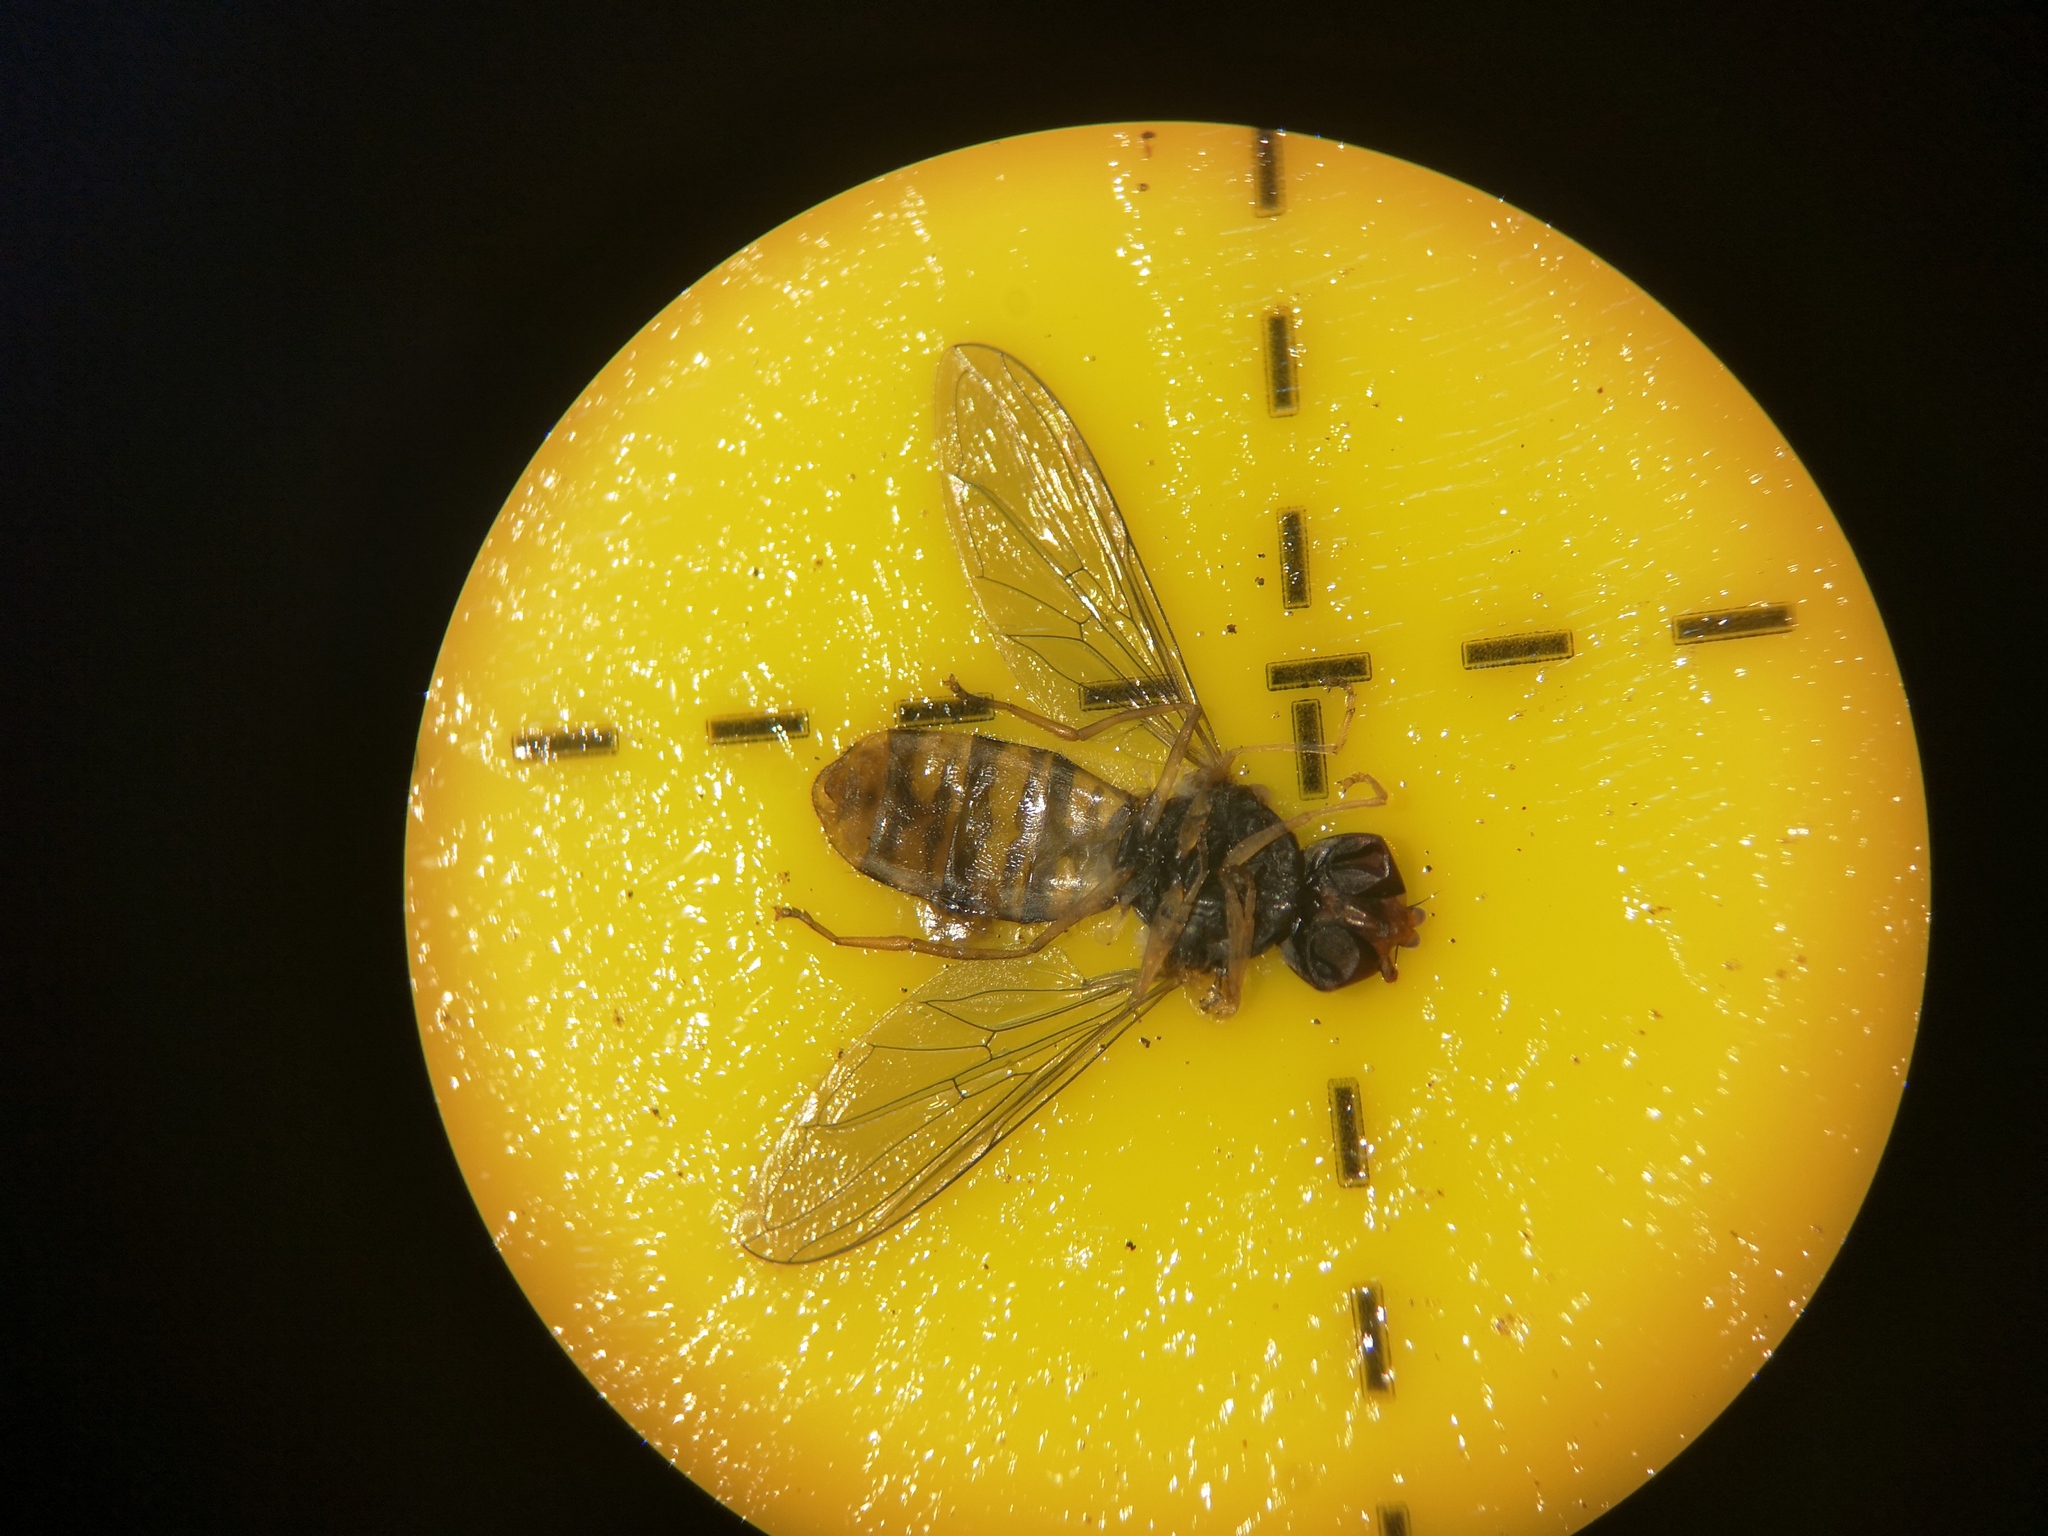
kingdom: Animalia
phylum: Arthropoda
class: Insecta
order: Diptera
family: Syrphidae
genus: Episyrphus
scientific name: Episyrphus balteatus
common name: Marmalade hoverfly
